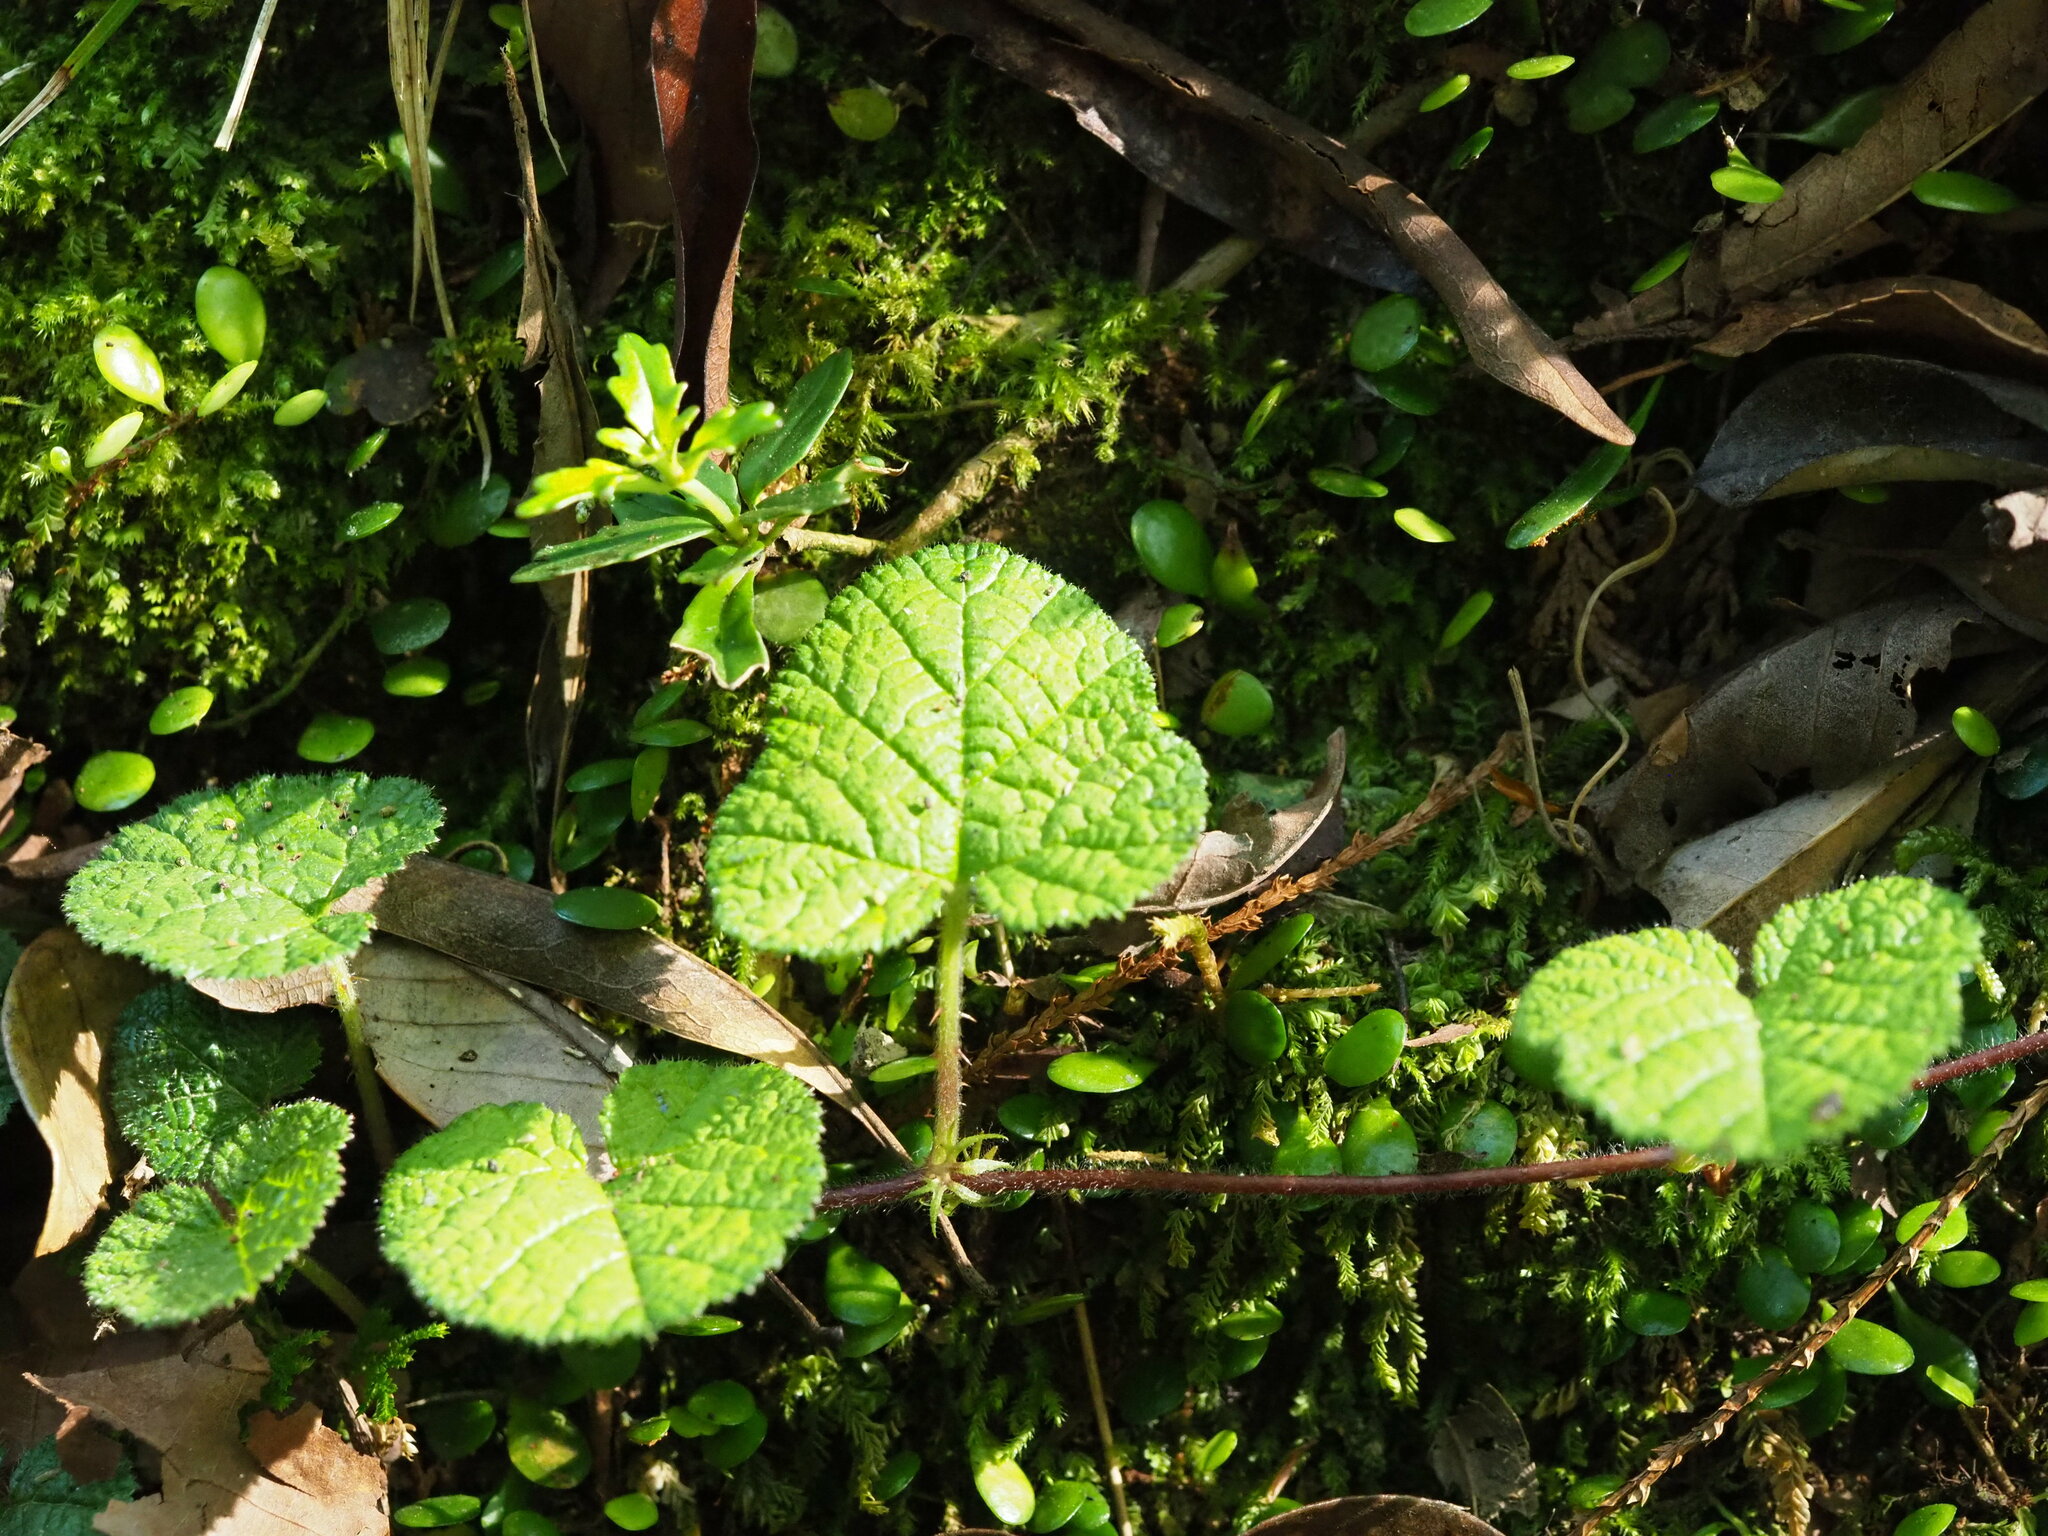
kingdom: Plantae
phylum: Tracheophyta
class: Magnoliopsida
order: Rosales
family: Rosaceae
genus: Rubus
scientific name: Rubus pectinellus
